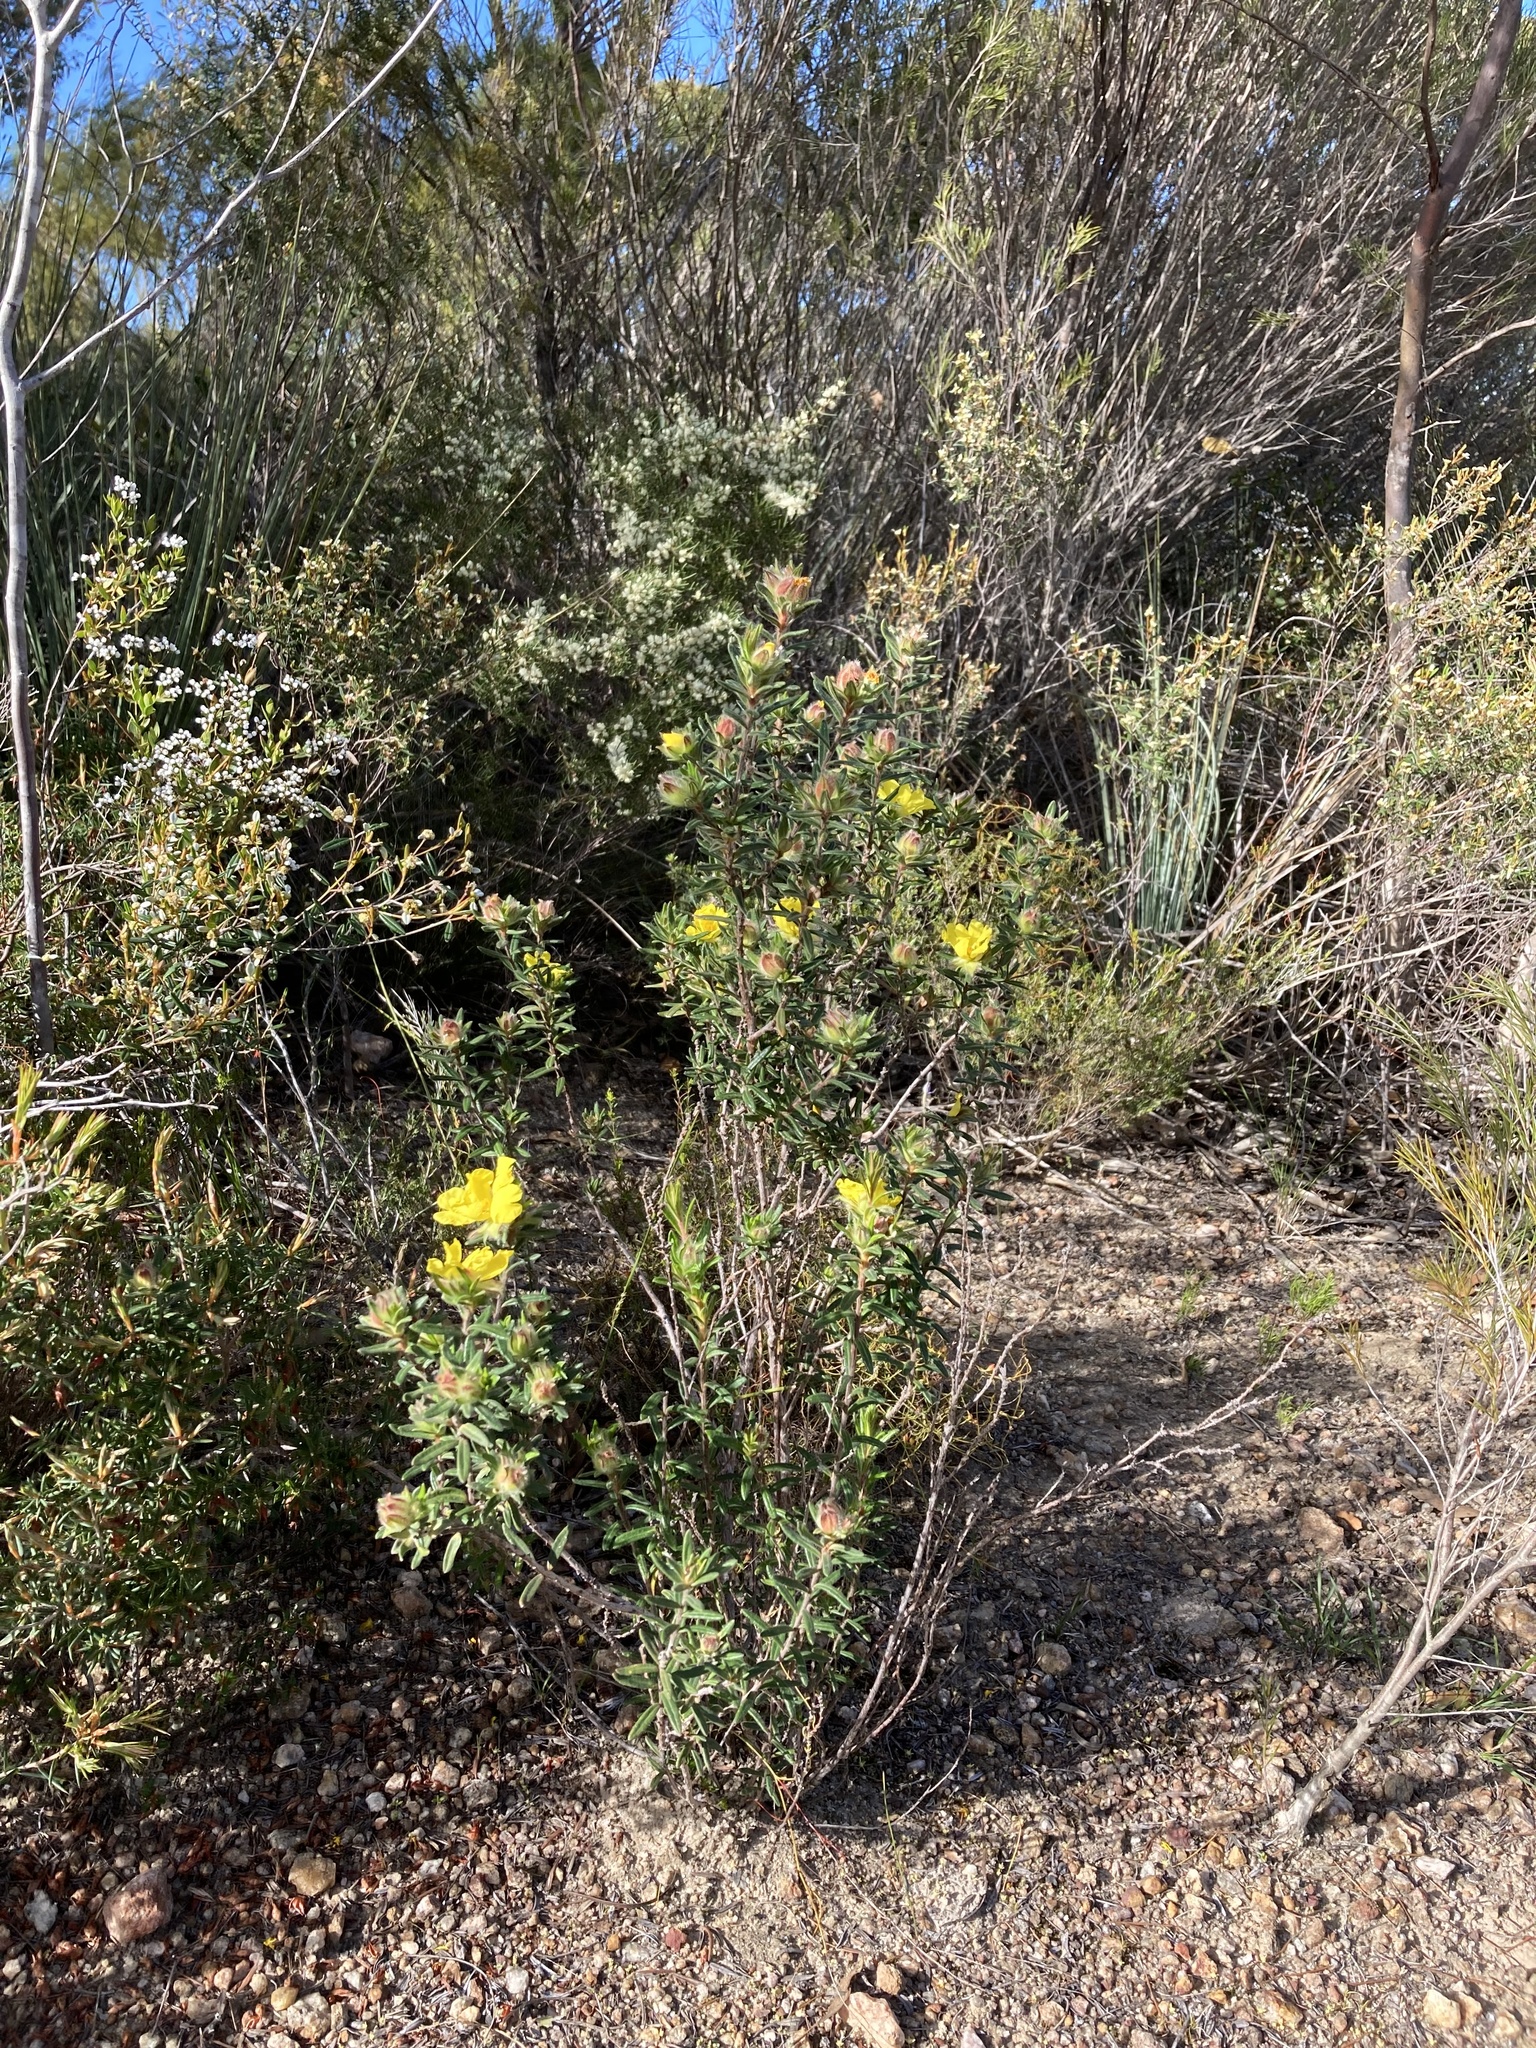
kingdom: Plantae
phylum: Tracheophyta
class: Magnoliopsida
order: Dilleniales
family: Dilleniaceae
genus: Hibbertia
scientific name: Hibbertia platyphylla
